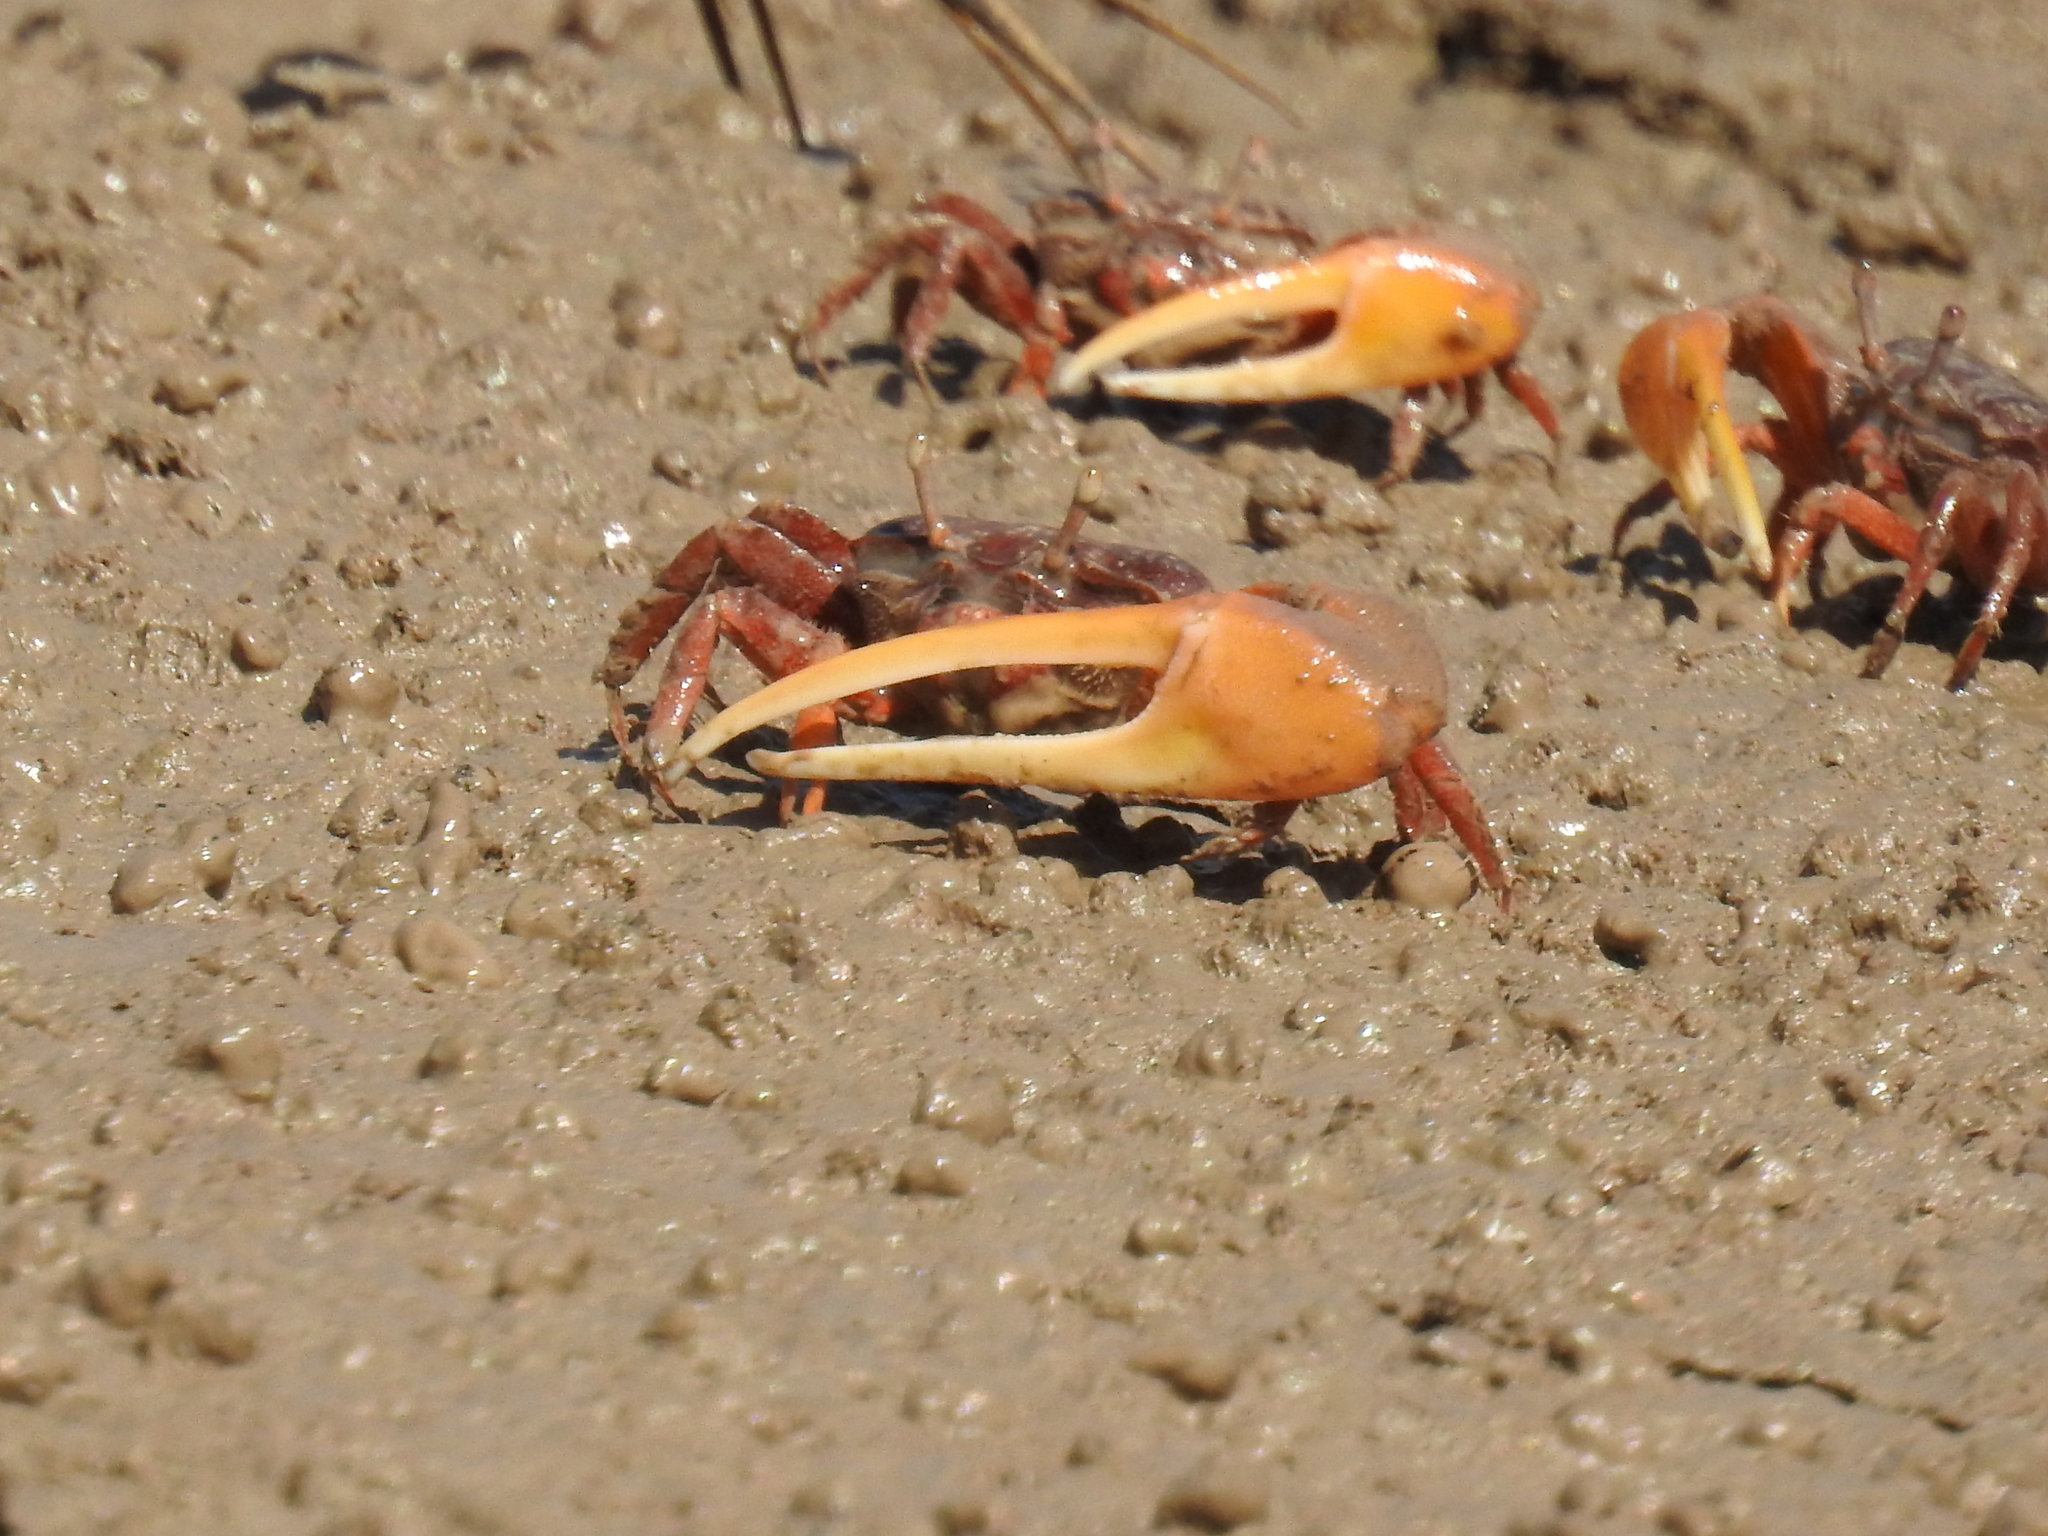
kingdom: Animalia
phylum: Arthropoda
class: Malacostraca
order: Decapoda
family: Ocypodidae
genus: Leptuca
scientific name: Leptuca coloradensis
